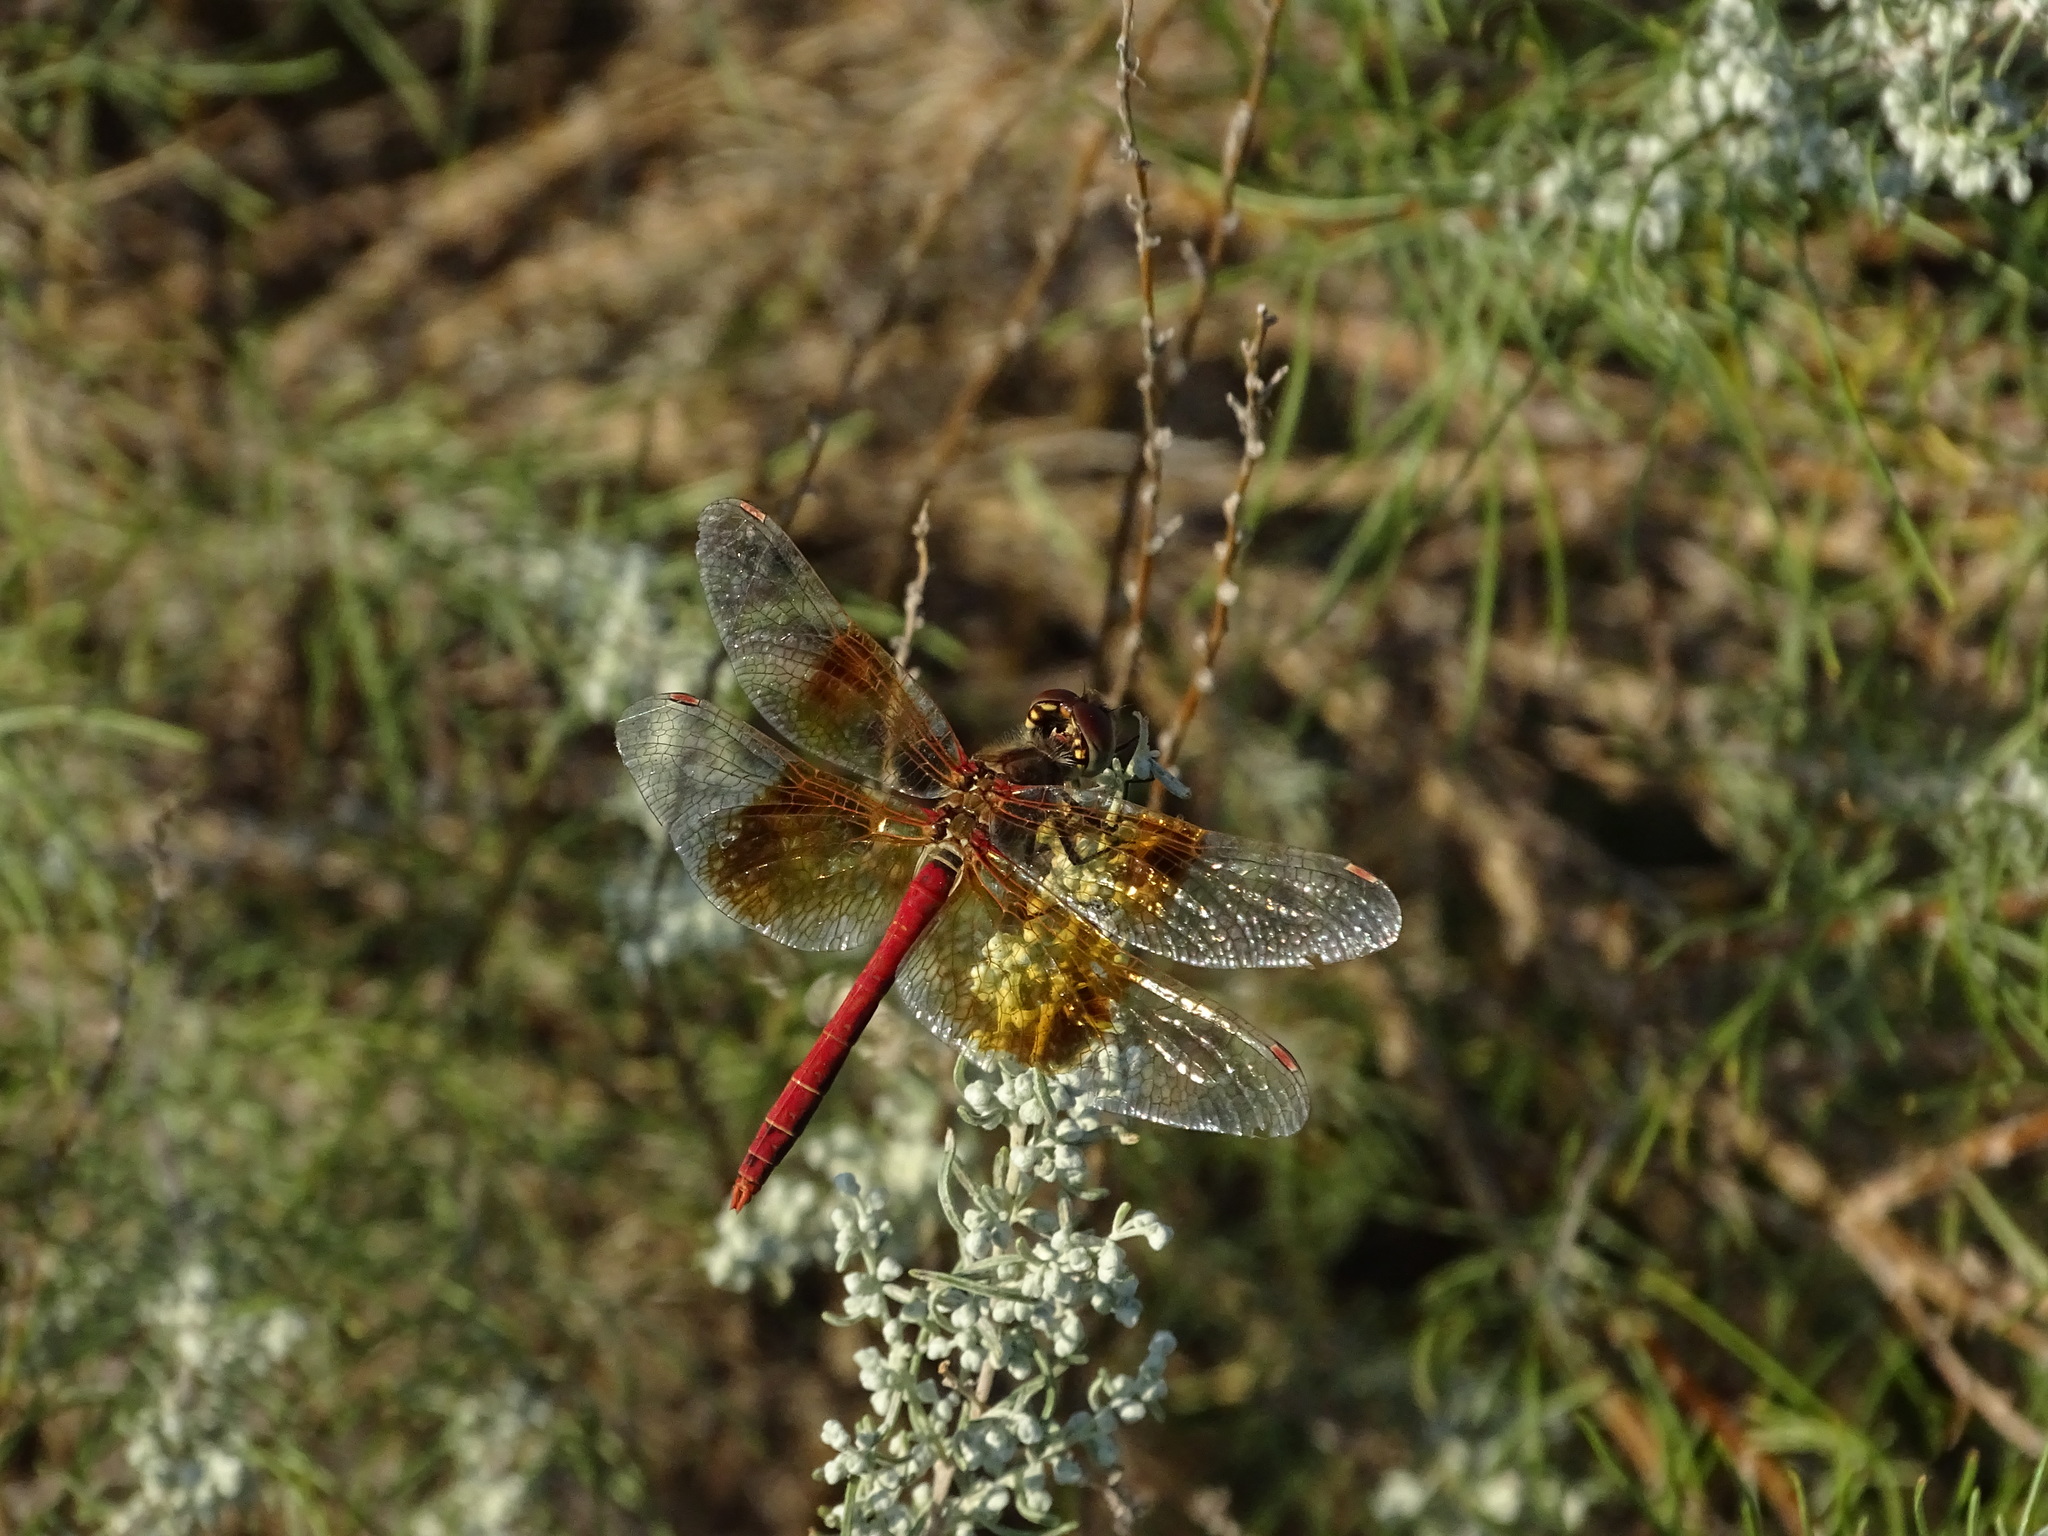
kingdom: Animalia
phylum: Arthropoda
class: Insecta
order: Odonata
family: Libellulidae
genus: Sympetrum
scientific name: Sympetrum semicinctum
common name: Band-winged meadowhawk
